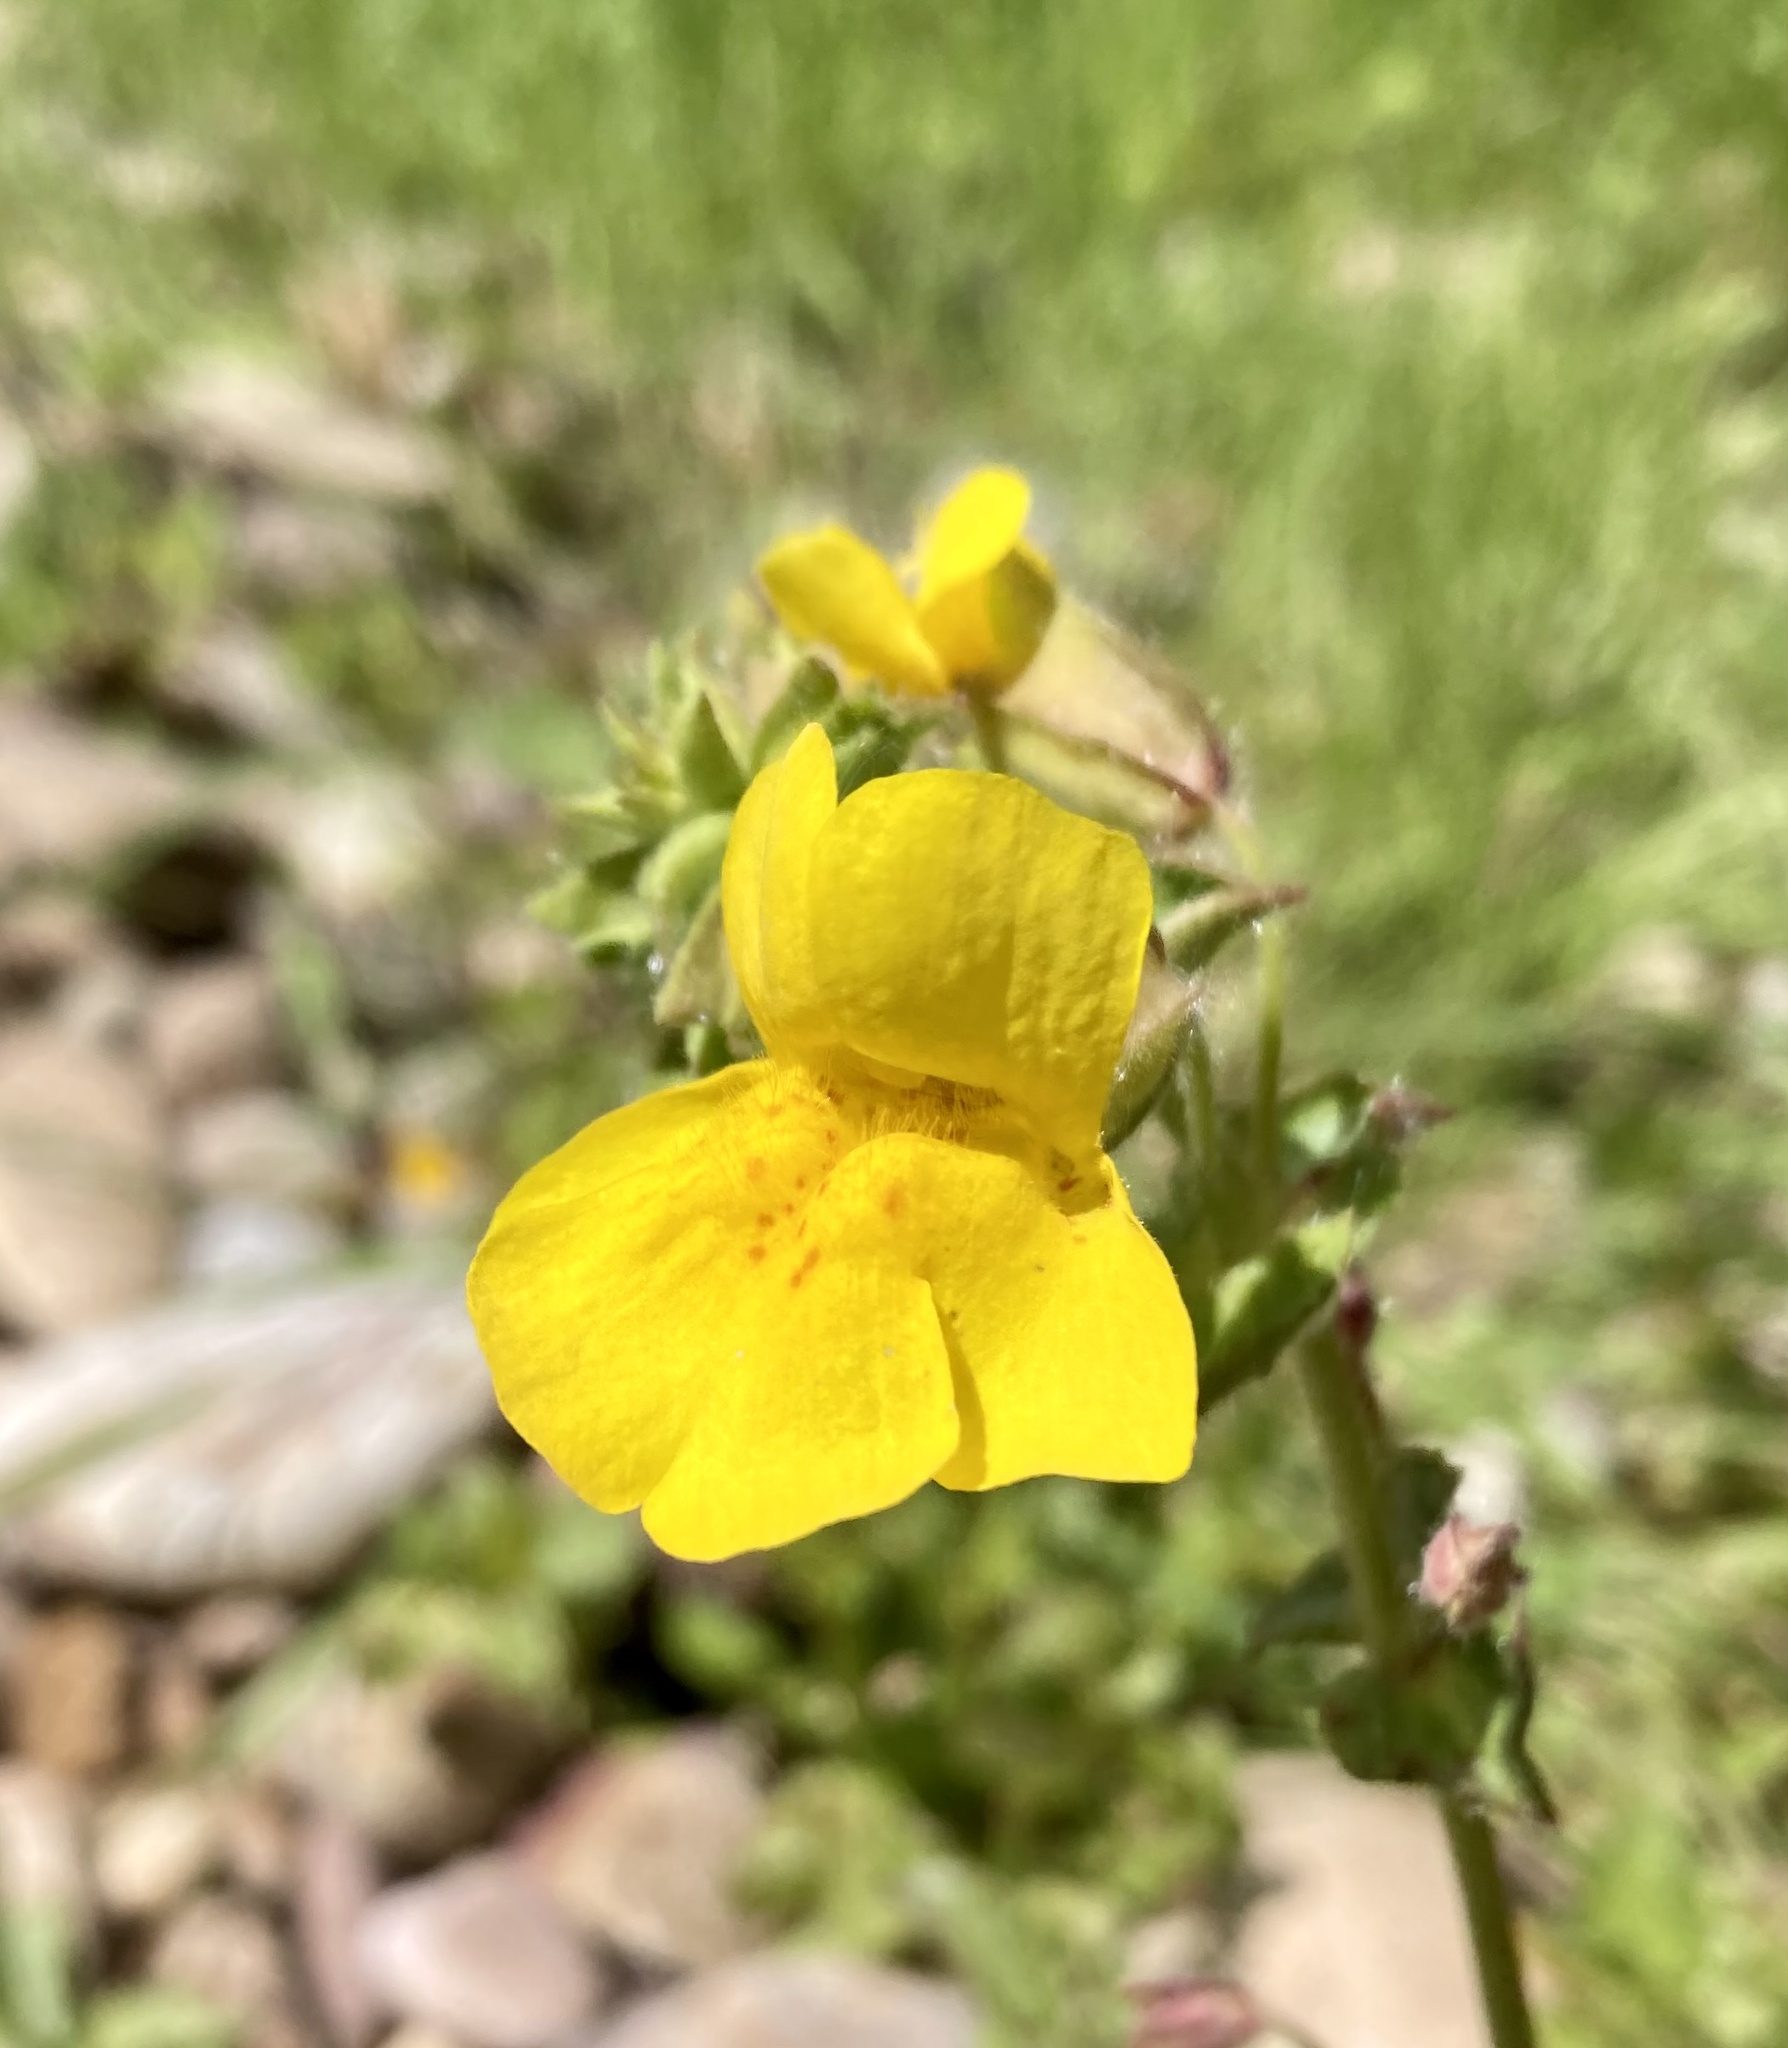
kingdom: Plantae
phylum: Tracheophyta
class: Magnoliopsida
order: Lamiales
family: Phrymaceae
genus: Erythranthe
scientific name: Erythranthe guttata
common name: Monkeyflower
